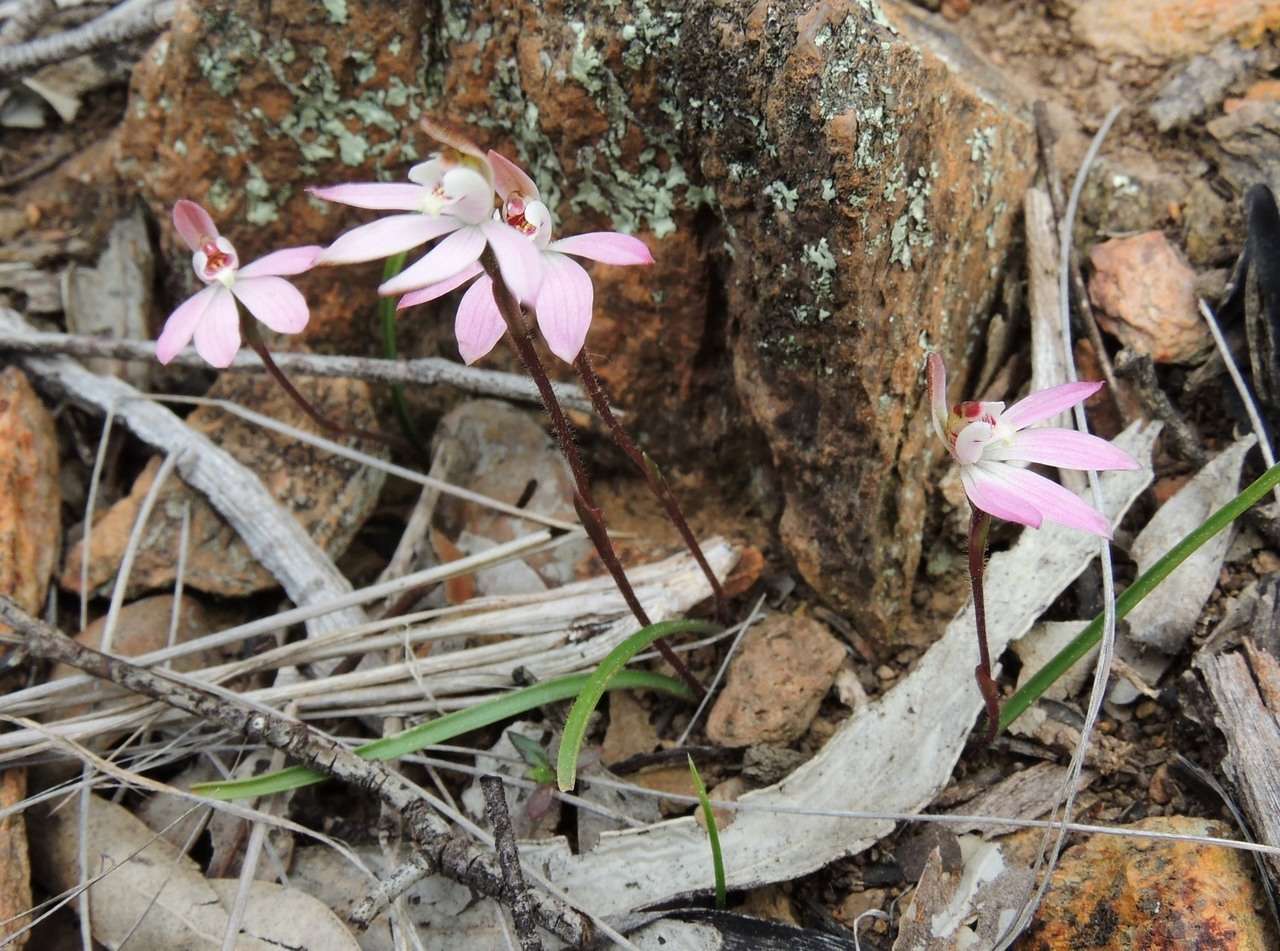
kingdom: Plantae
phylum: Tracheophyta
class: Liliopsida
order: Asparagales
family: Orchidaceae
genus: Caladenia
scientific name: Caladenia fuscata
